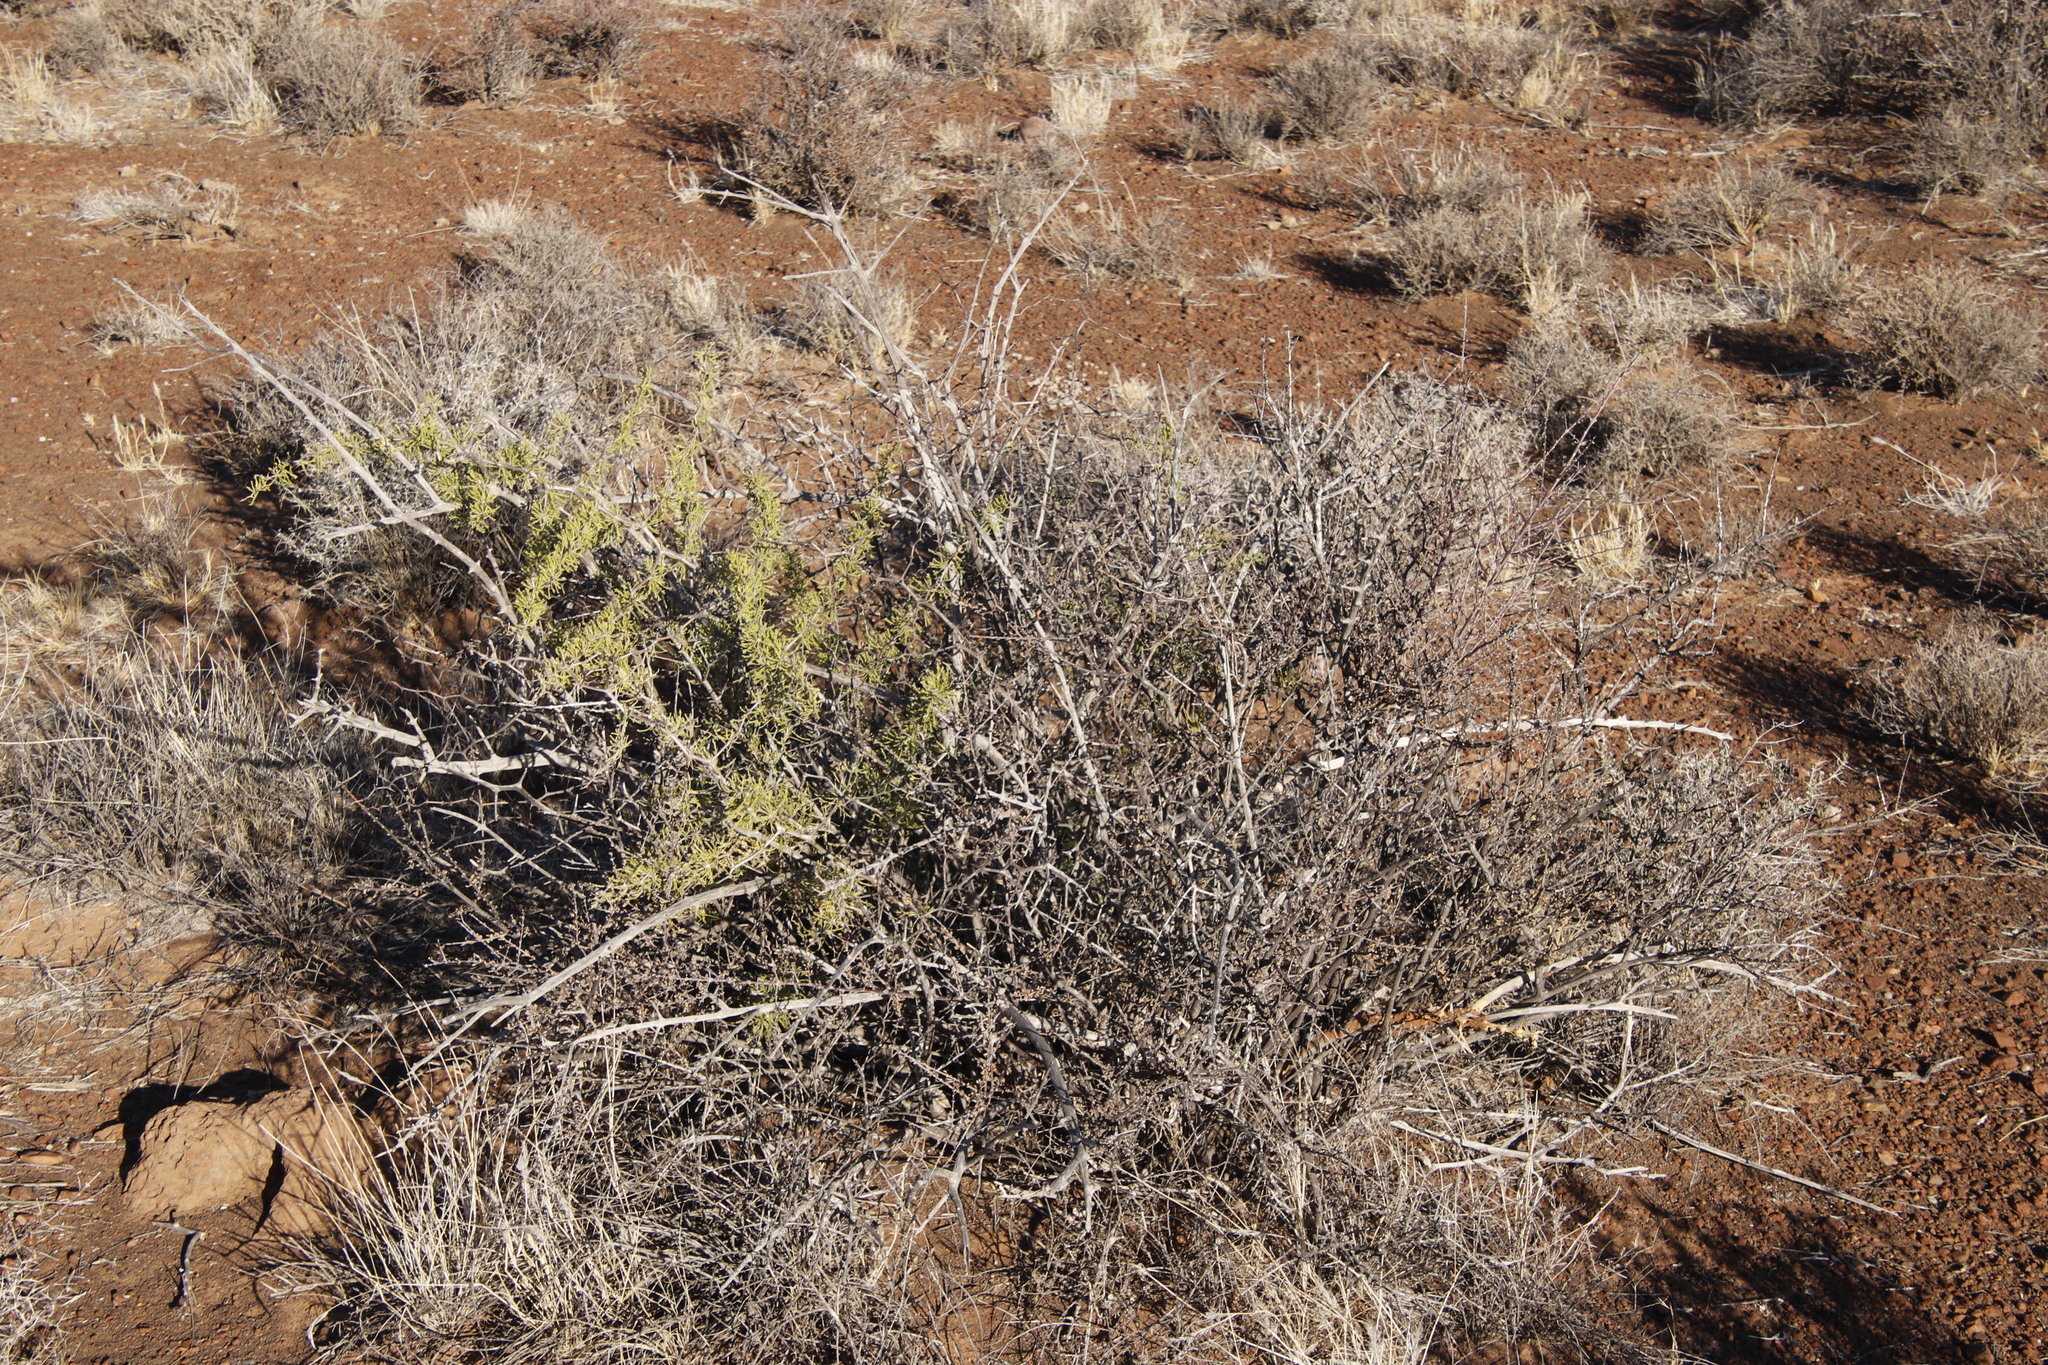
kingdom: Plantae
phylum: Tracheophyta
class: Liliopsida
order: Asparagales
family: Asparagaceae
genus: Asparagus
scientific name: Asparagus burchellii
